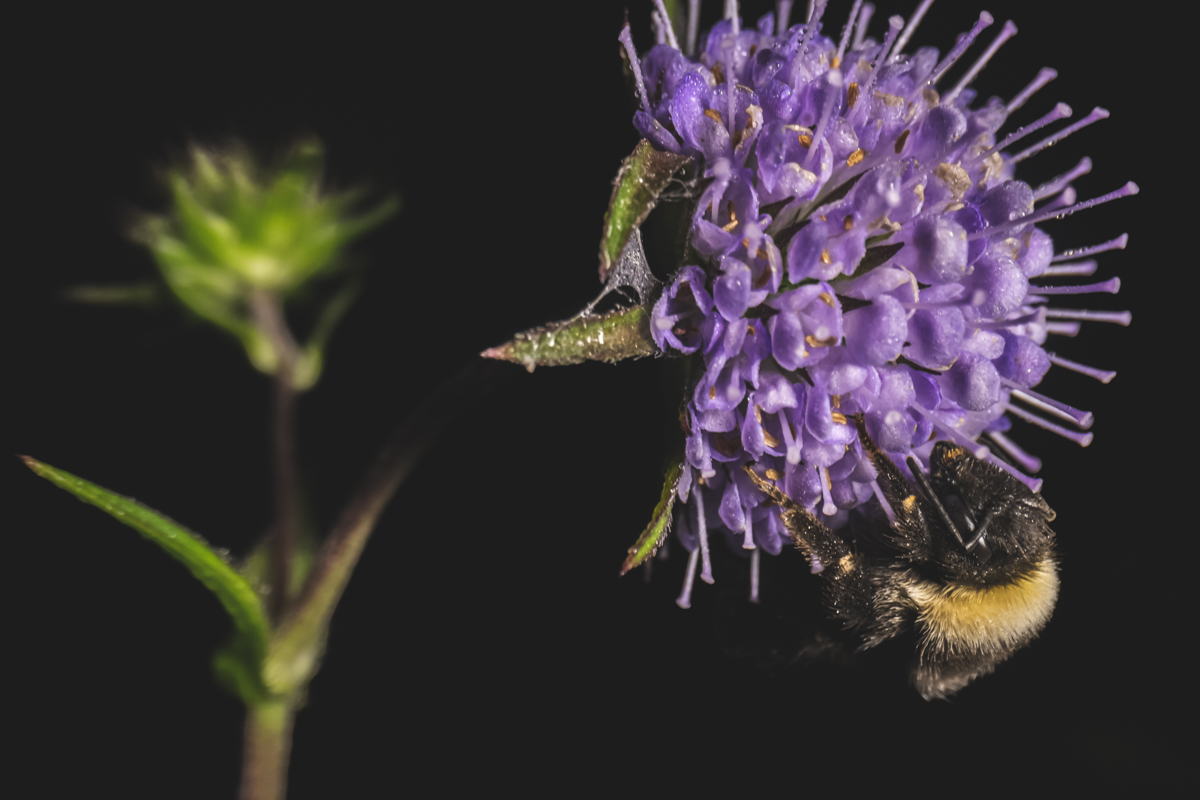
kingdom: Animalia
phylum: Arthropoda
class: Insecta
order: Hymenoptera
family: Apidae
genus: Bombus
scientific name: Bombus
